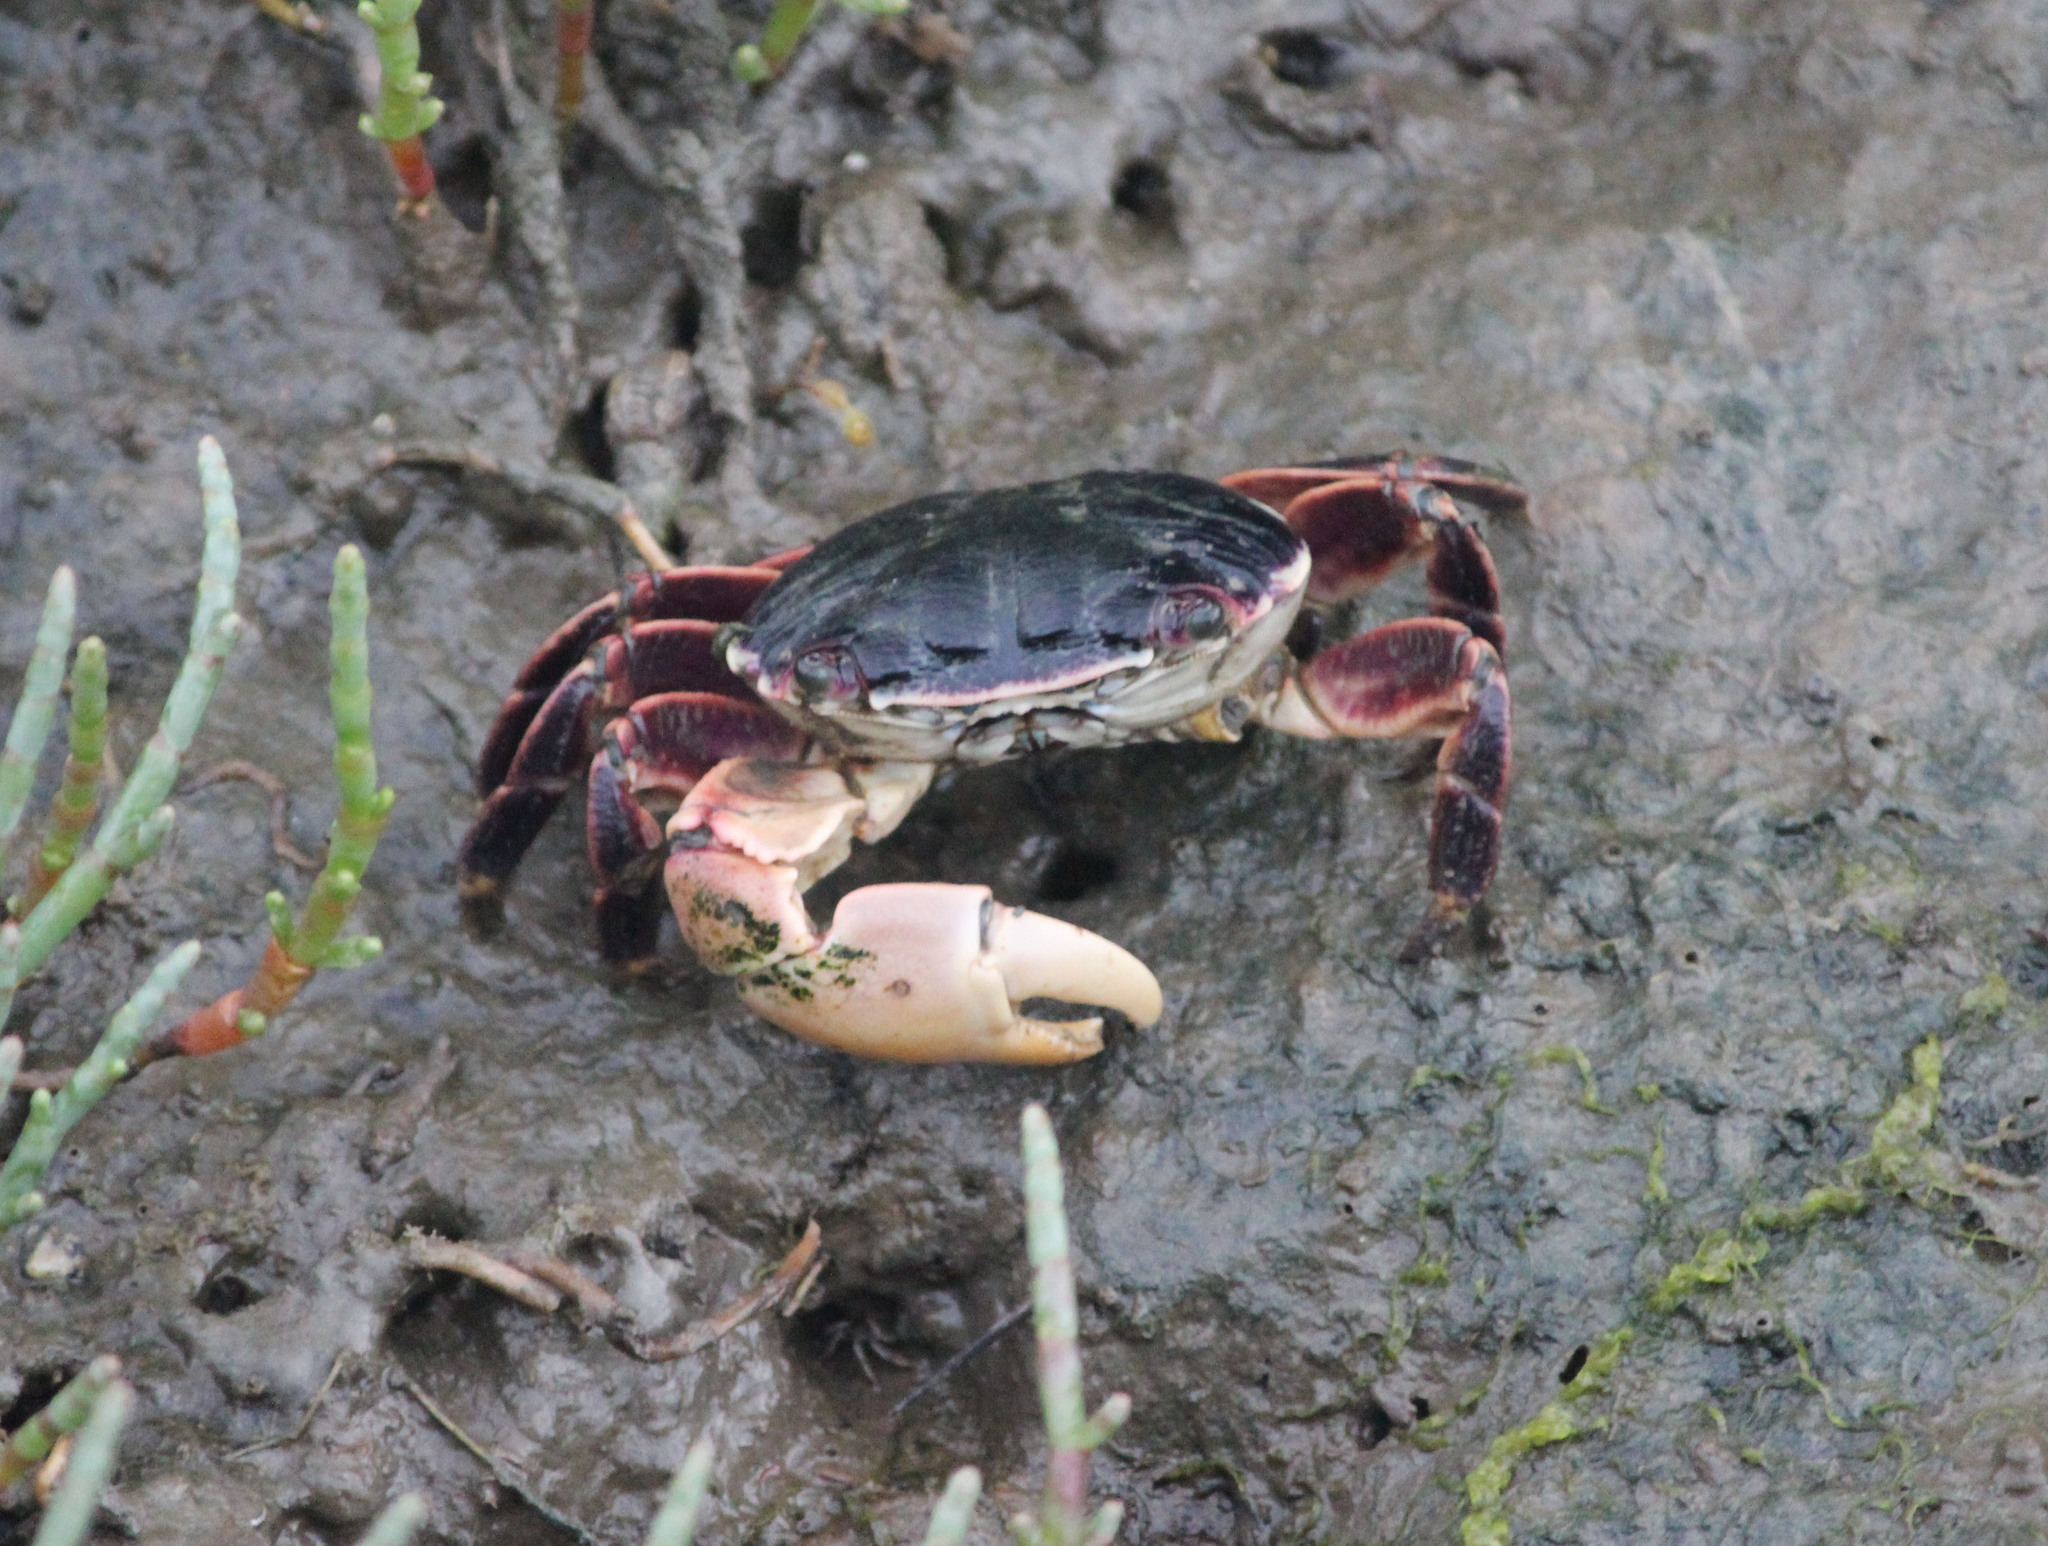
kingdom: Animalia
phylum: Arthropoda
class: Malacostraca
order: Decapoda
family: Grapsidae
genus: Pachygrapsus
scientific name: Pachygrapsus crassipes
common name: Striped shore crab
